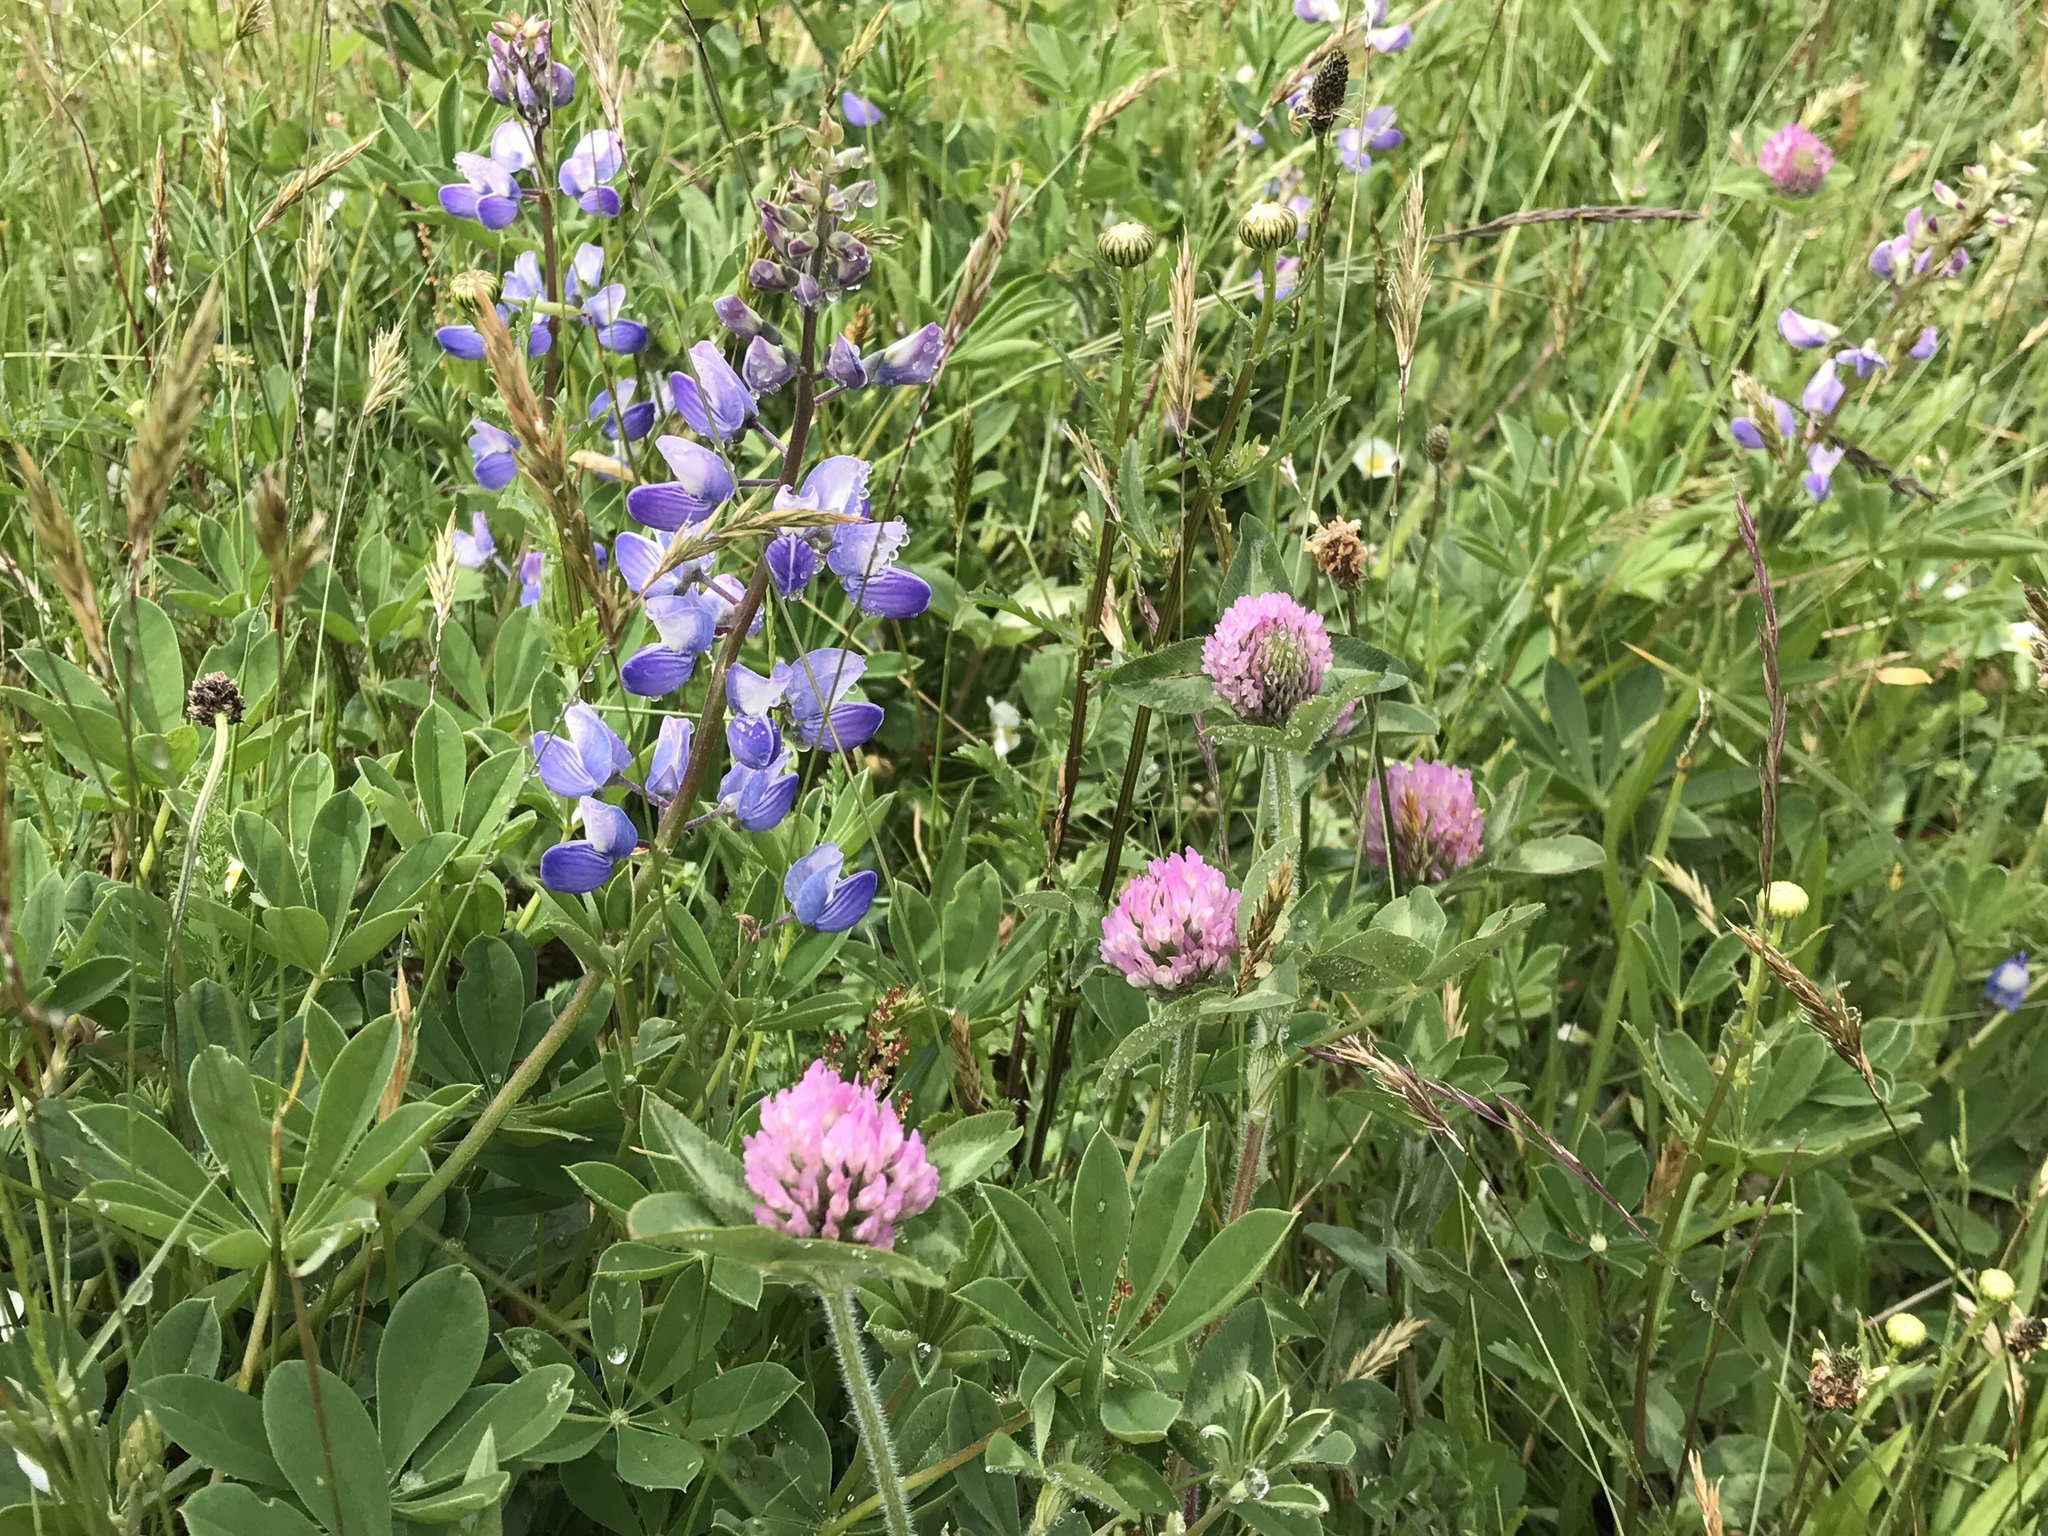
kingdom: Plantae
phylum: Tracheophyta
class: Magnoliopsida
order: Fabales
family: Fabaceae
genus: Trifolium
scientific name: Trifolium pratense
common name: Red clover
